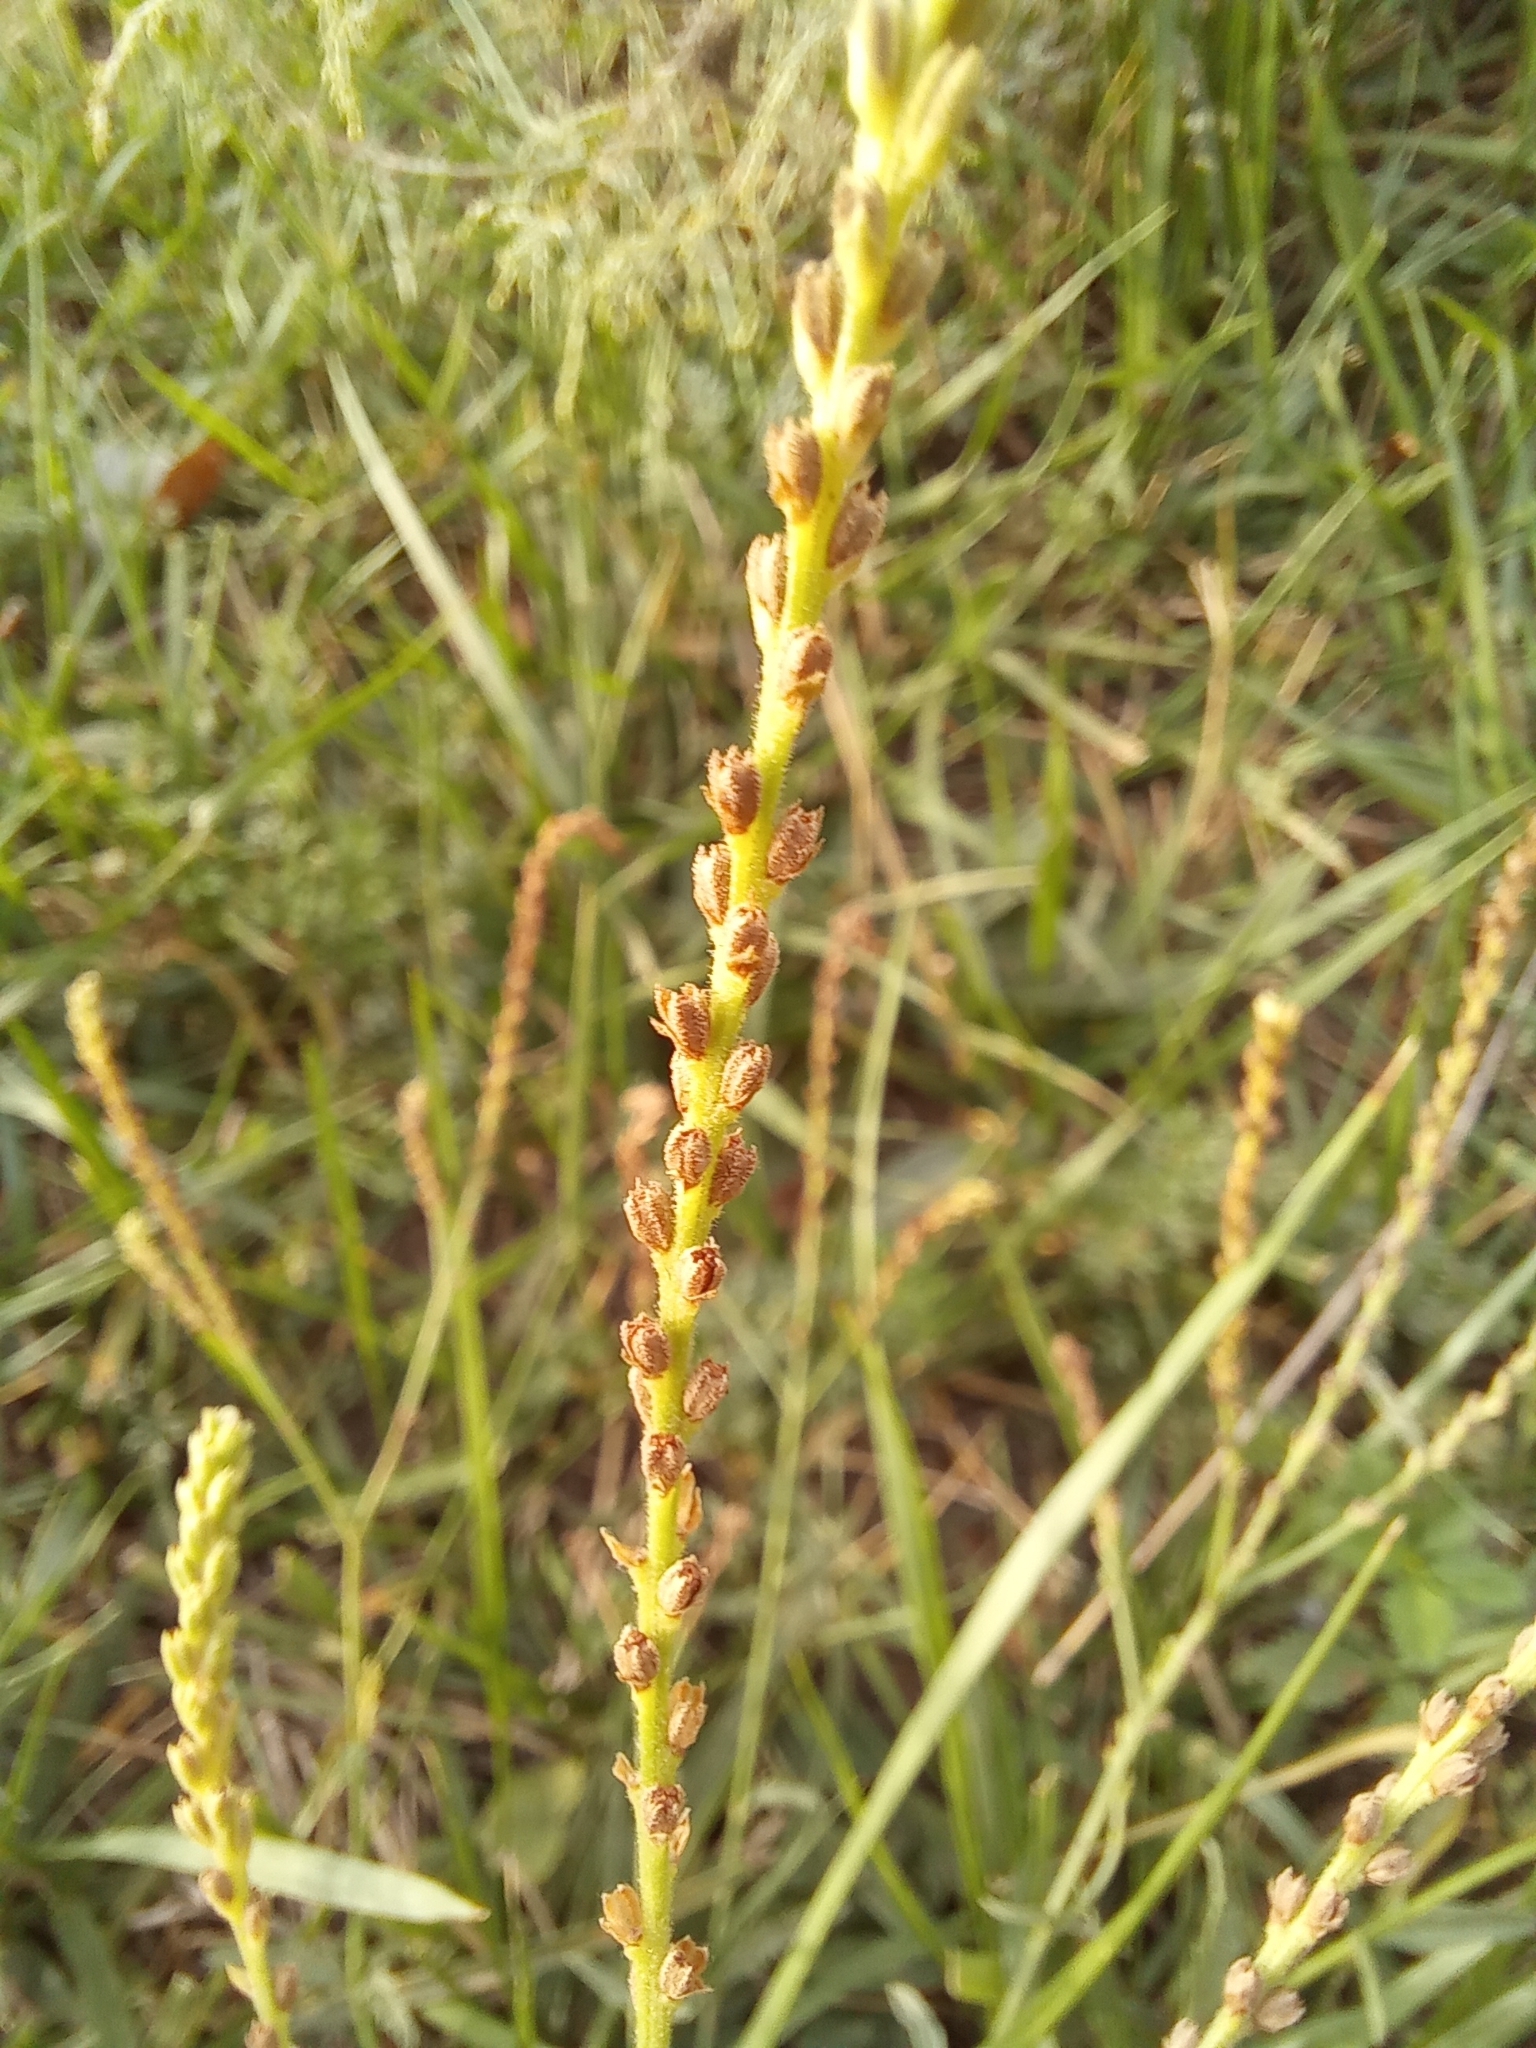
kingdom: Plantae
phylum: Tracheophyta
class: Magnoliopsida
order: Lamiales
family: Verbenaceae
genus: Verbena
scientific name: Verbena officinalis
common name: Vervain
